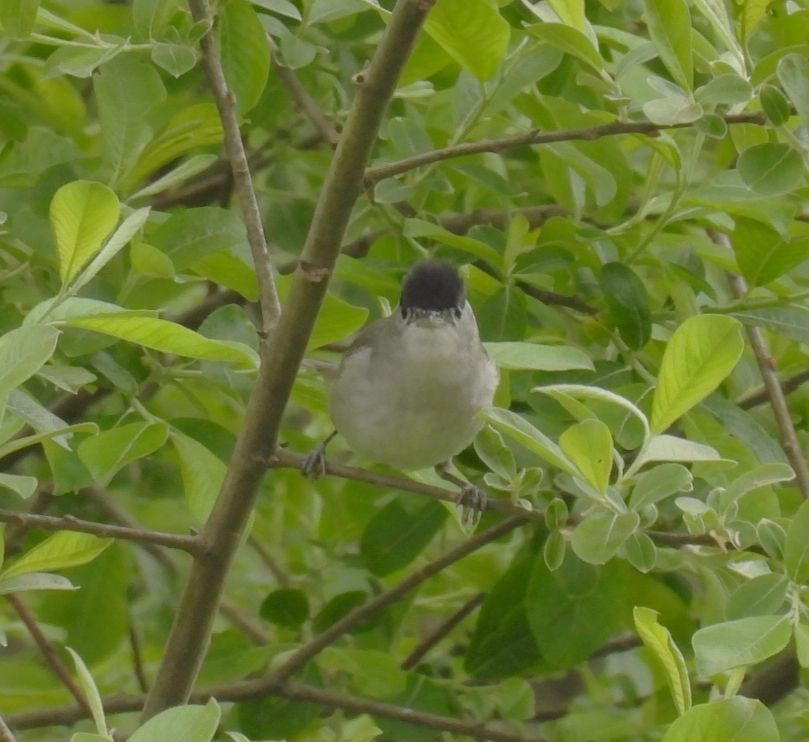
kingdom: Animalia
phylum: Chordata
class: Aves
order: Passeriformes
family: Sylviidae
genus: Sylvia
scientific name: Sylvia atricapilla
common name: Eurasian blackcap
